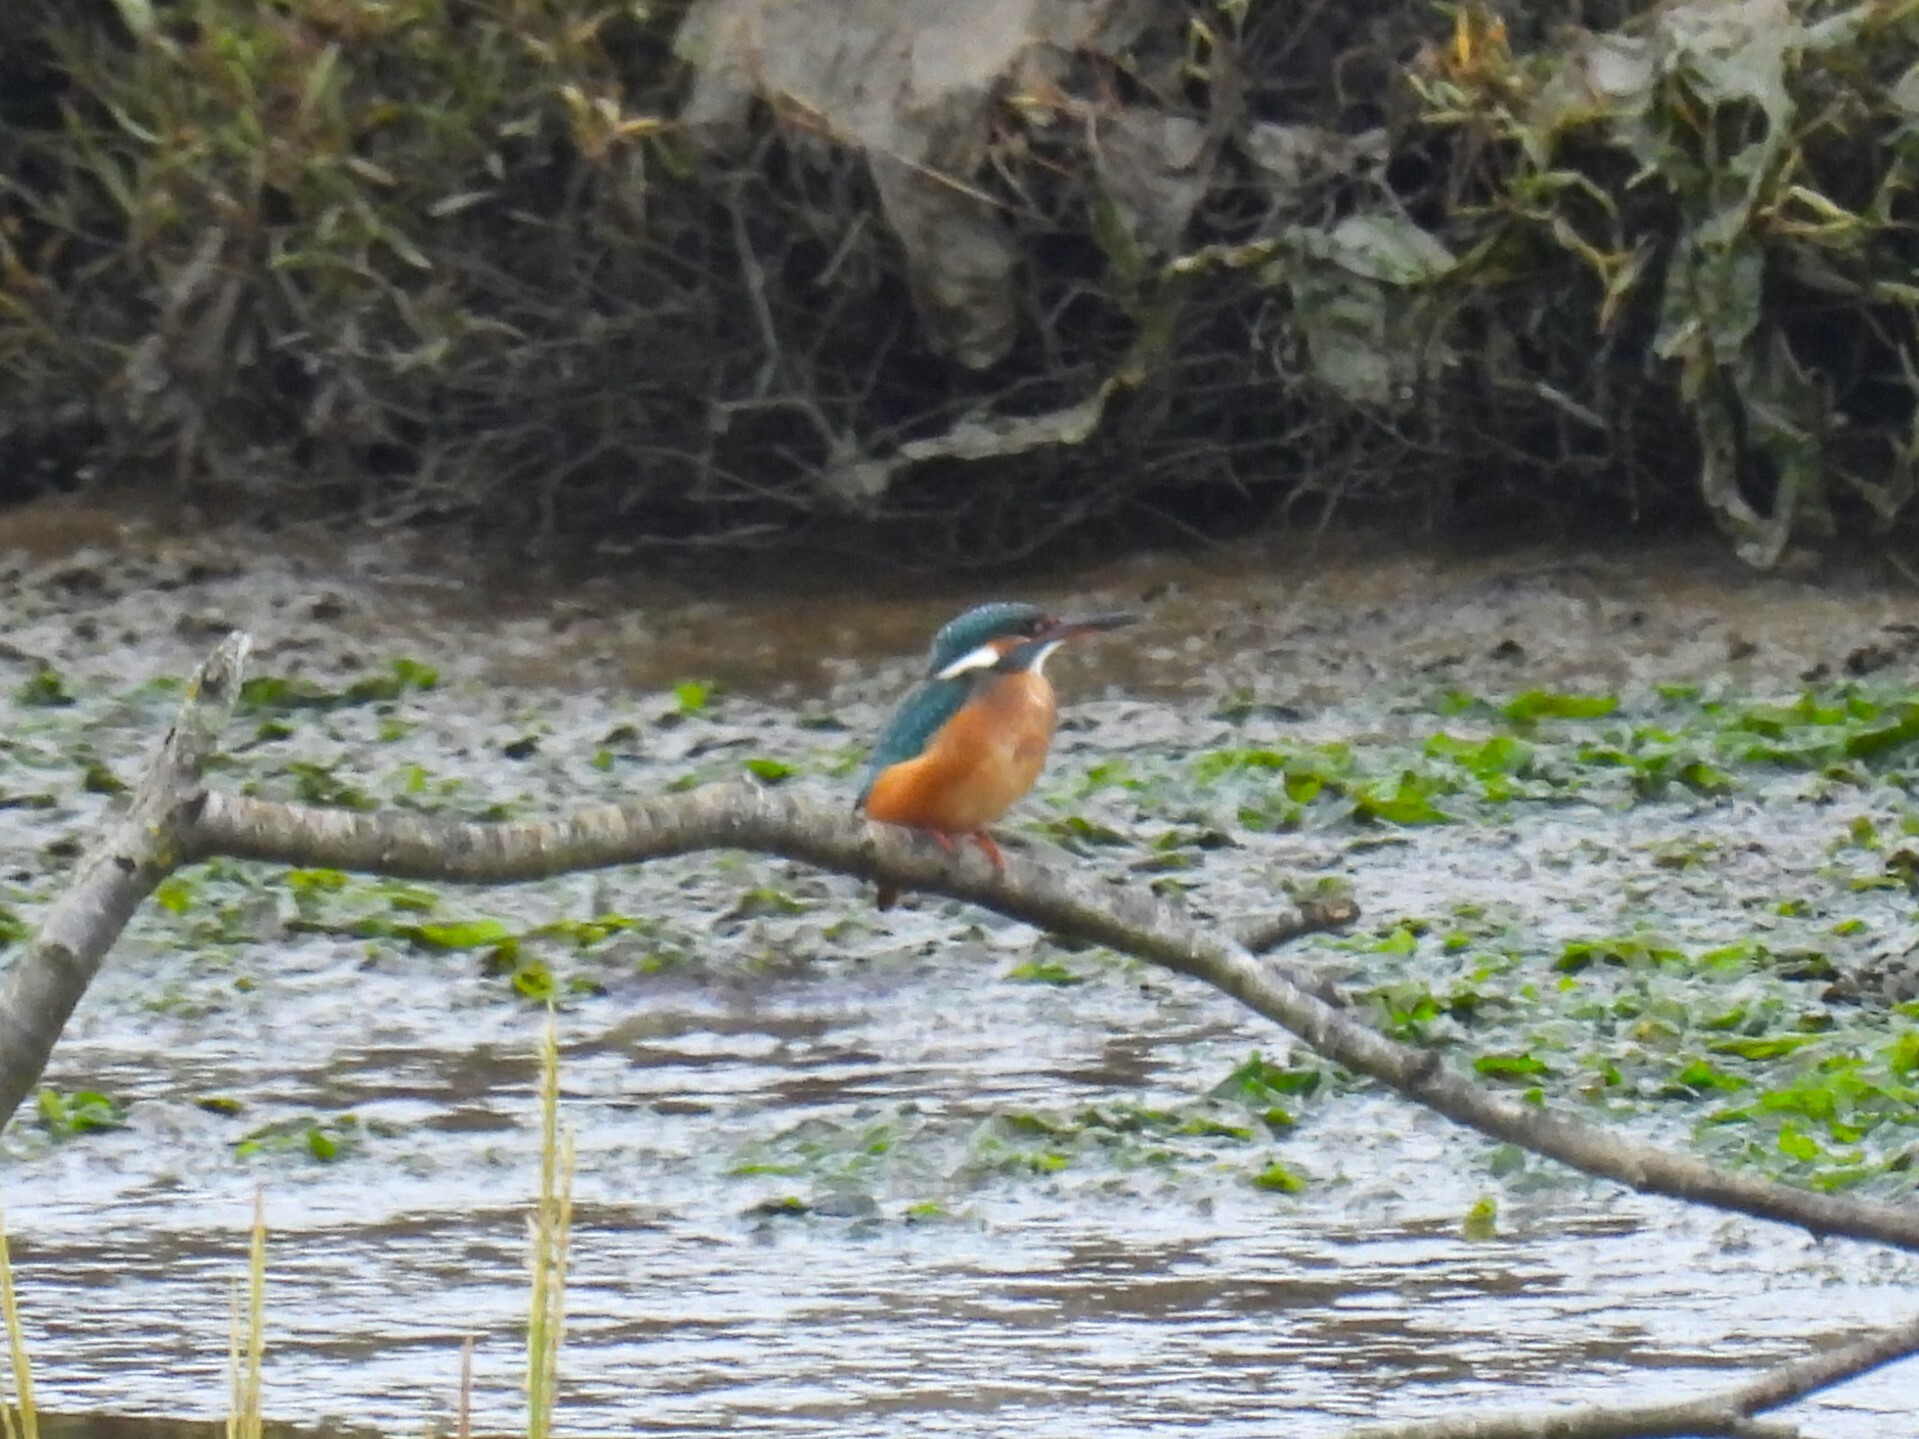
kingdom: Animalia
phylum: Chordata
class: Aves
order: Coraciiformes
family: Alcedinidae
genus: Alcedo
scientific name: Alcedo atthis
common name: Common kingfisher
